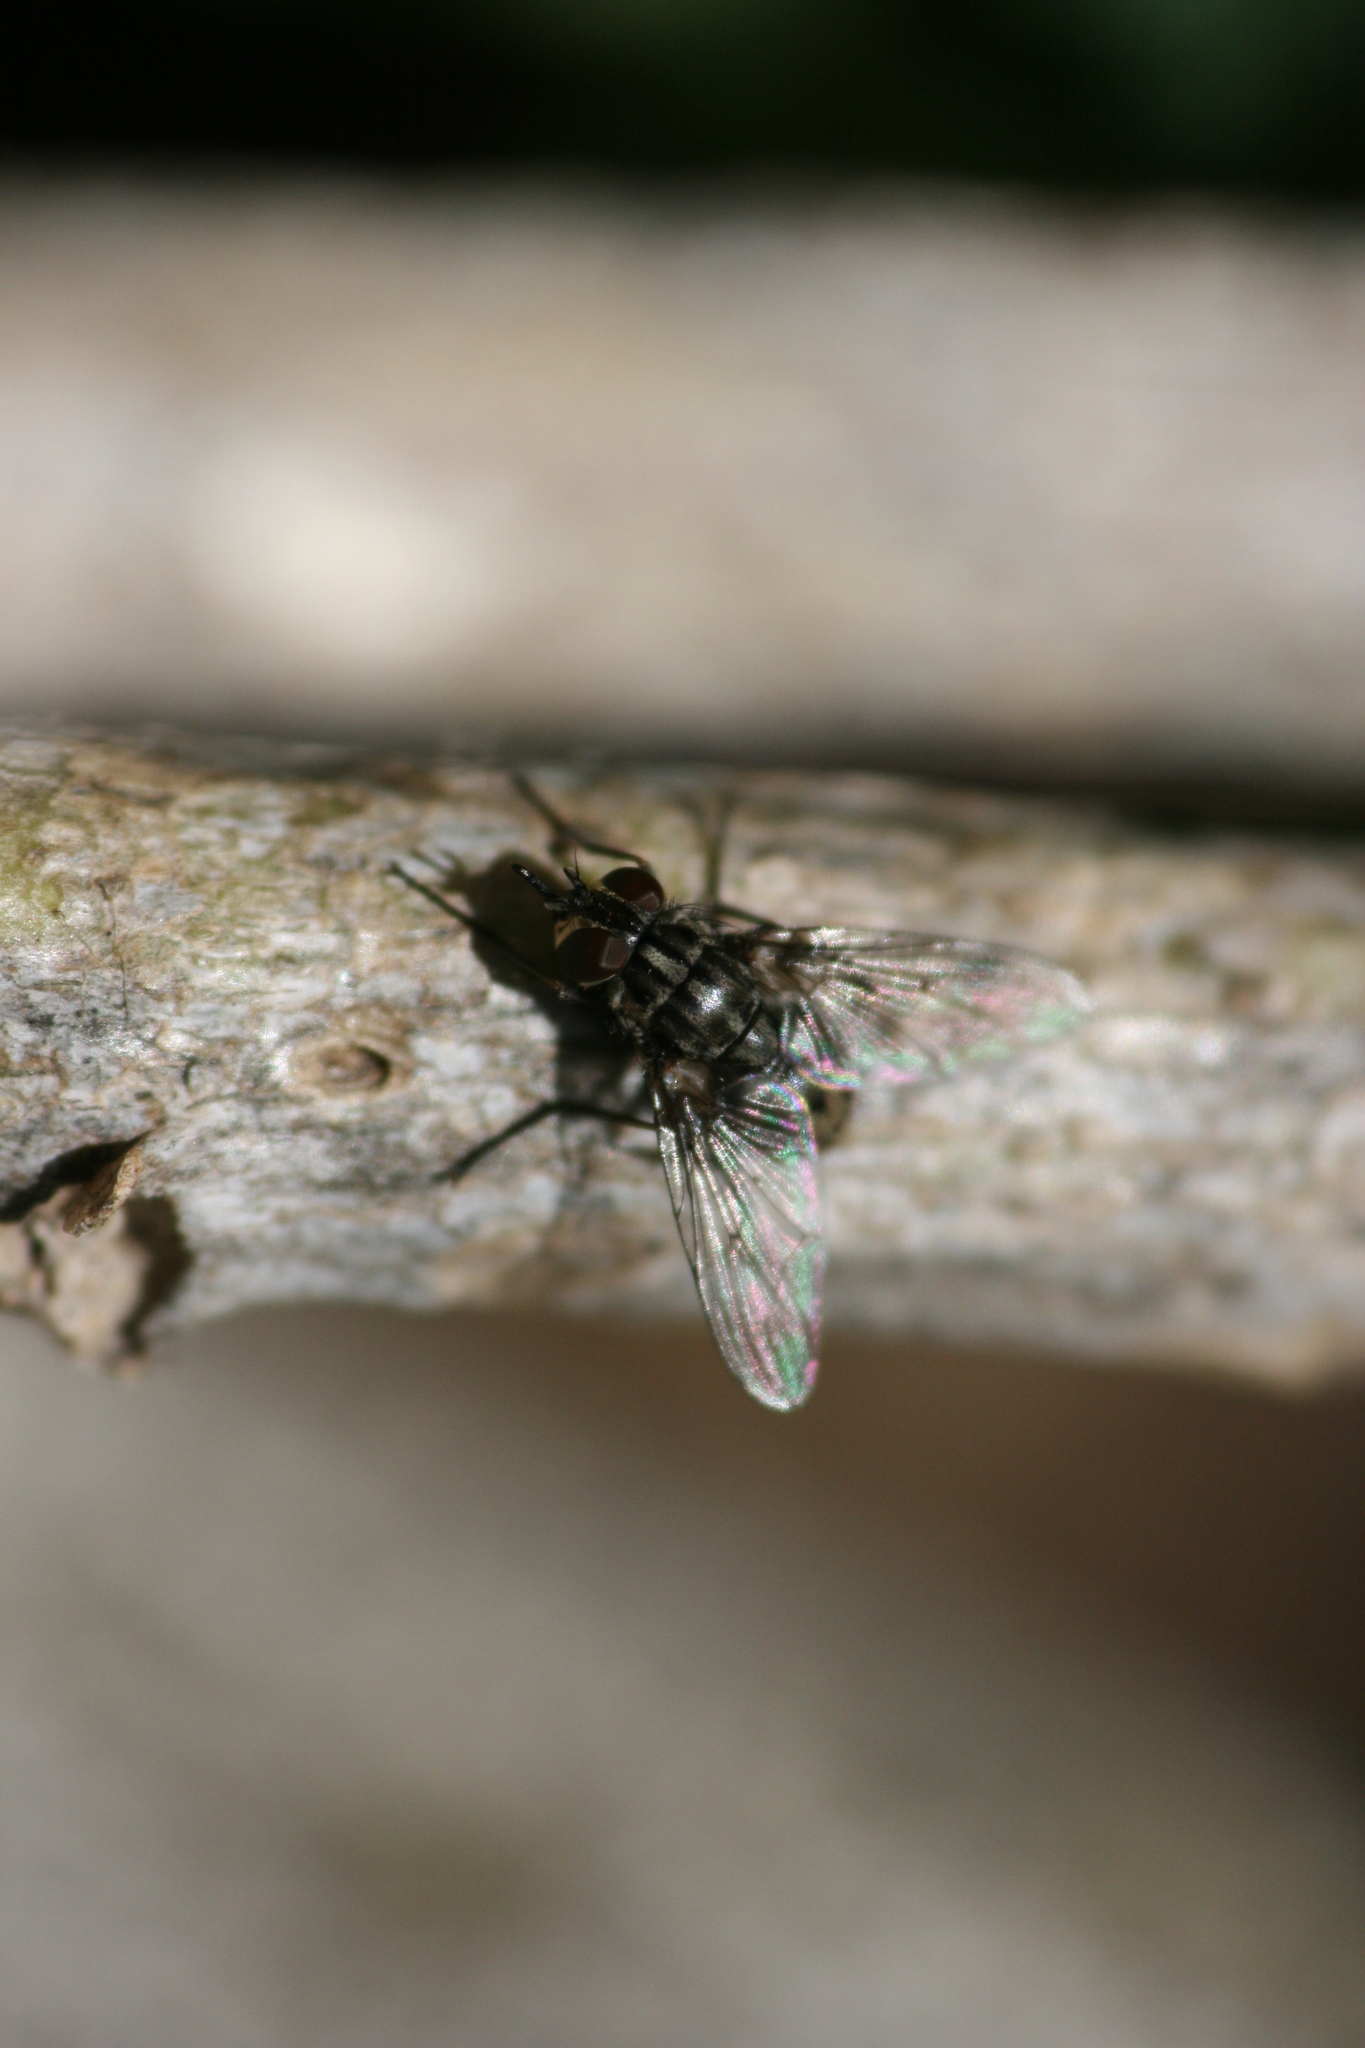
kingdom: Animalia
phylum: Arthropoda
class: Insecta
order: Diptera
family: Muscidae
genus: Stomoxys
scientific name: Stomoxys calcitrans
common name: Stable fly
